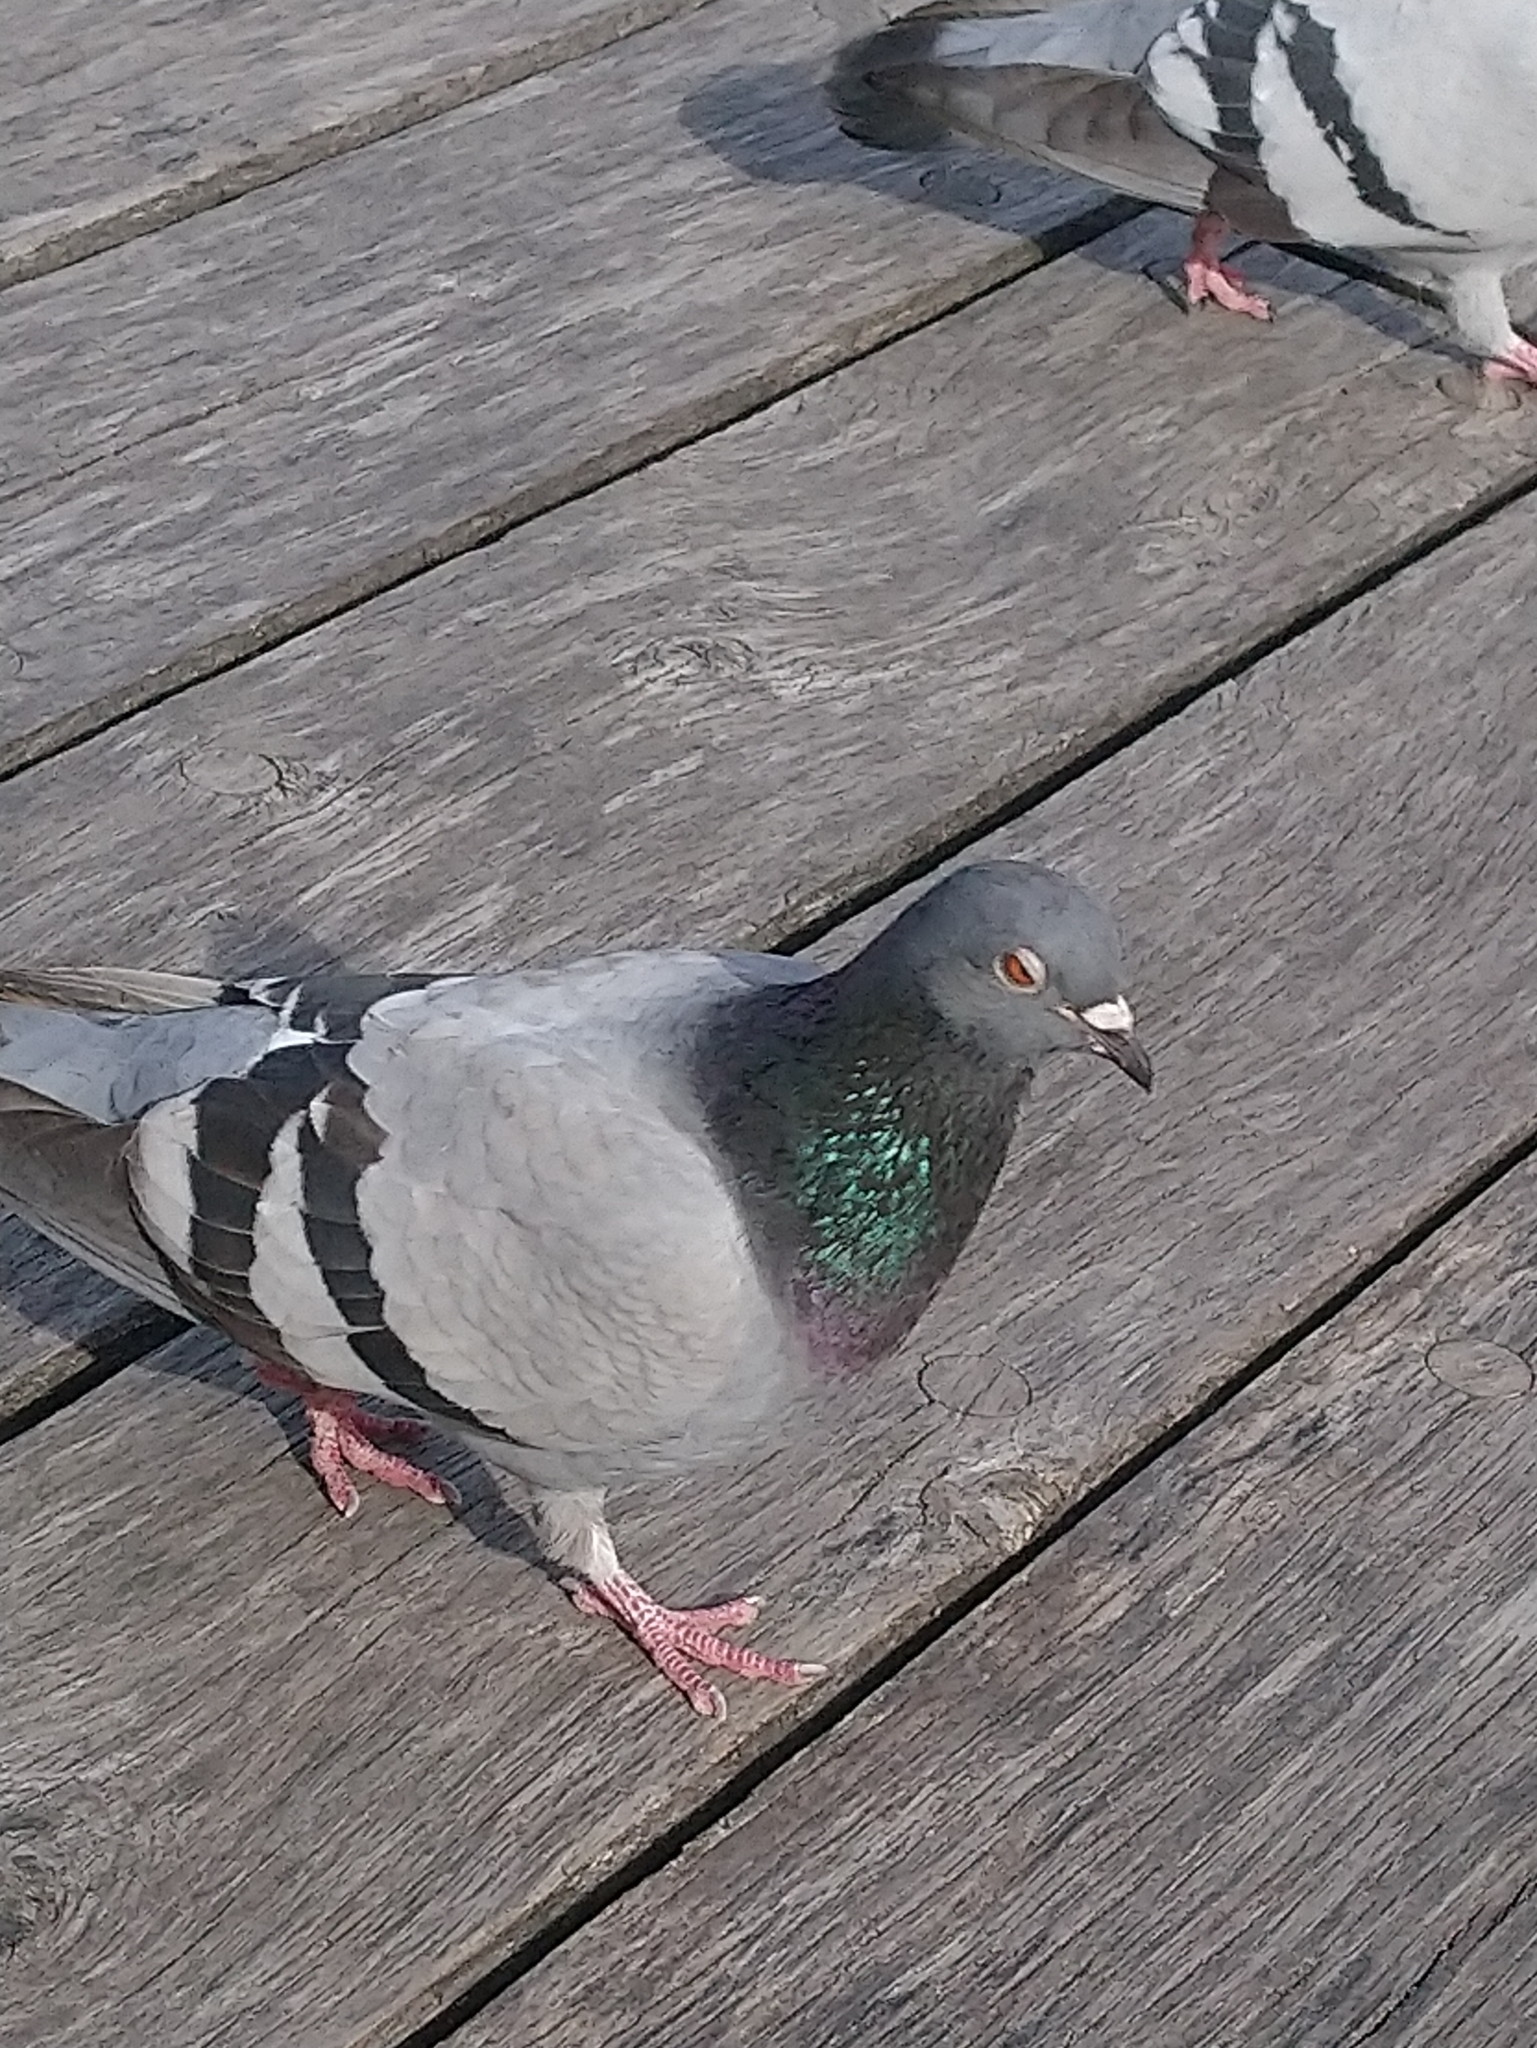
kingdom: Animalia
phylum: Chordata
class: Aves
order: Columbiformes
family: Columbidae
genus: Columba
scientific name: Columba livia
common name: Rock pigeon
